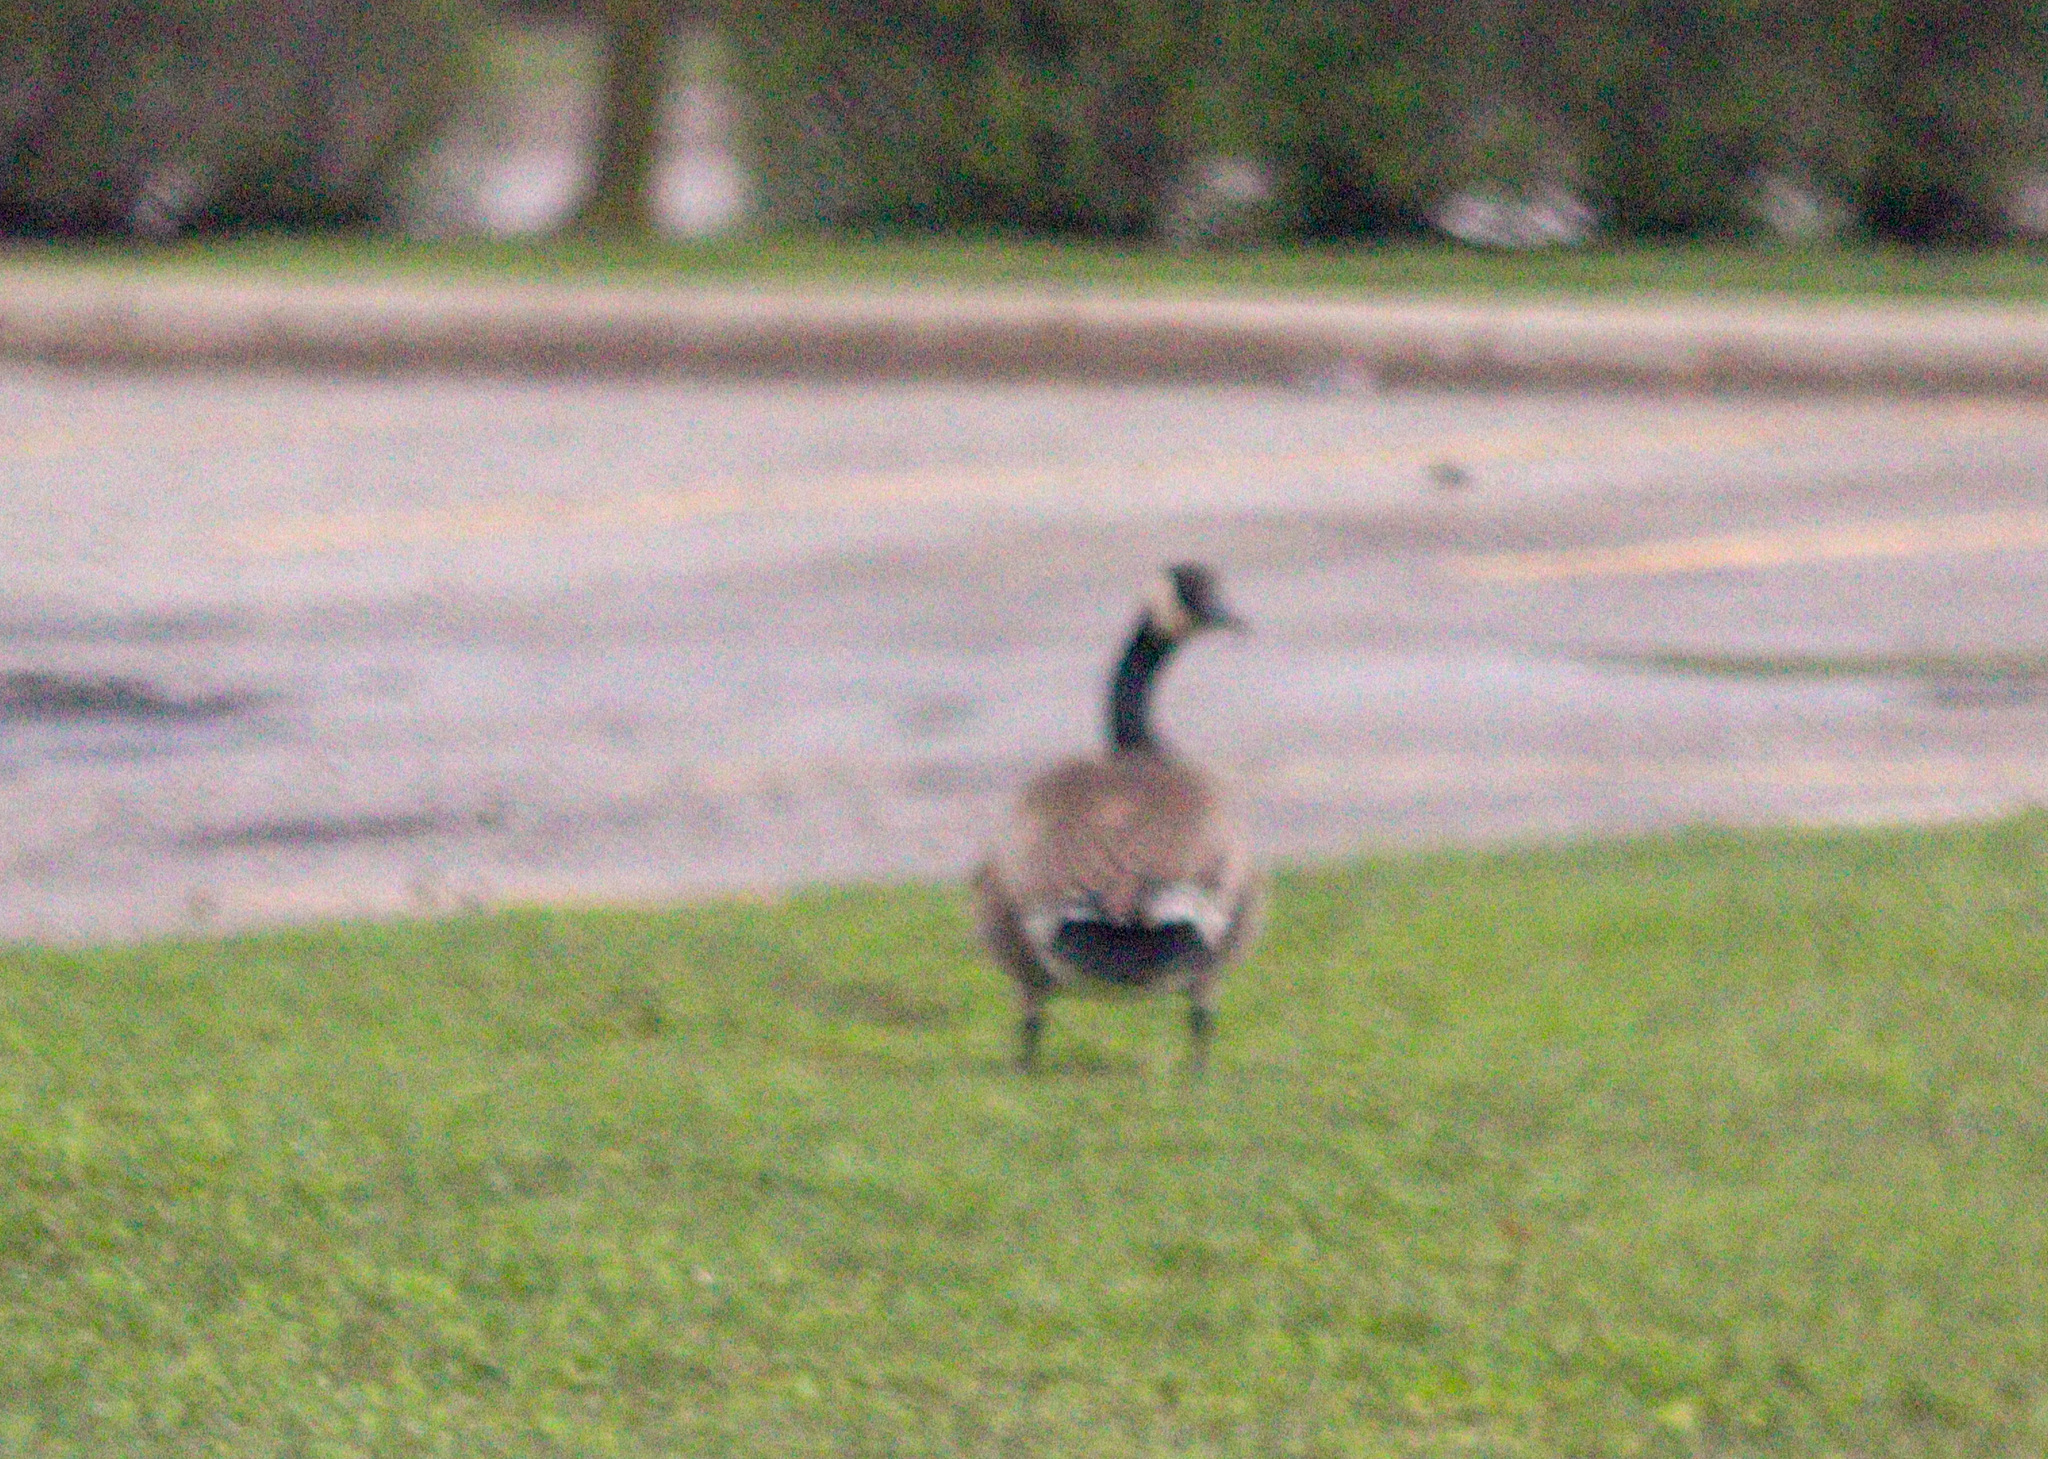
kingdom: Animalia
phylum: Chordata
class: Aves
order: Anseriformes
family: Anatidae
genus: Branta
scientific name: Branta canadensis
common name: Canada goose
